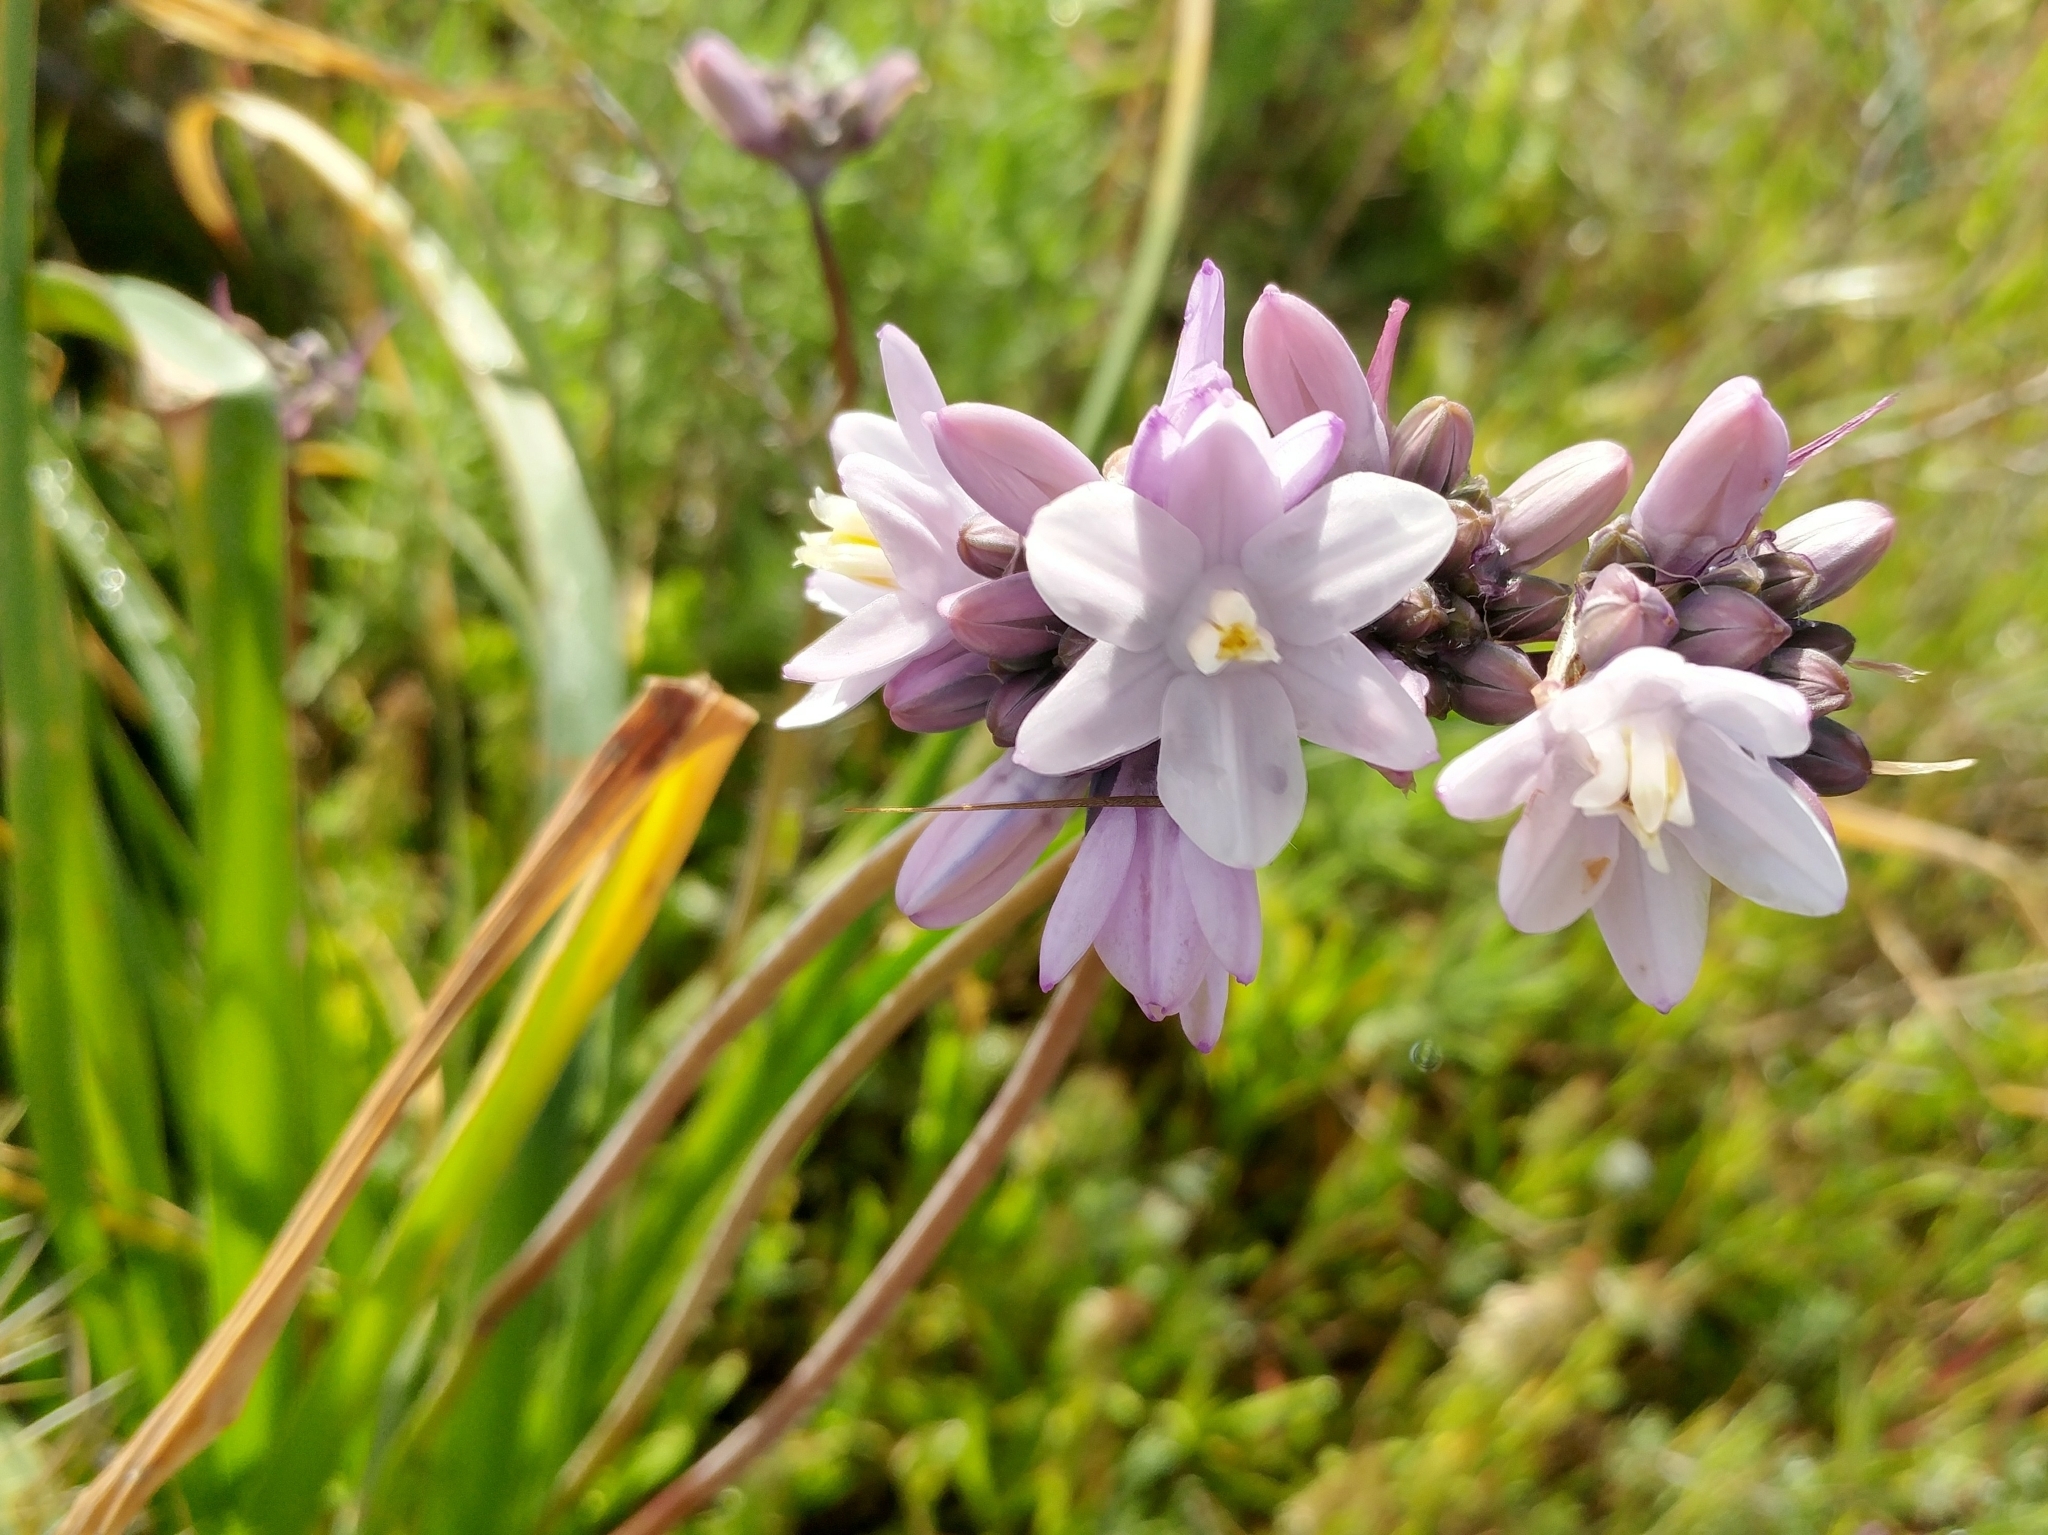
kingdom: Plantae
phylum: Tracheophyta
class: Liliopsida
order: Asparagales
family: Asparagaceae
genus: Dipterostemon
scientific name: Dipterostemon capitatus
